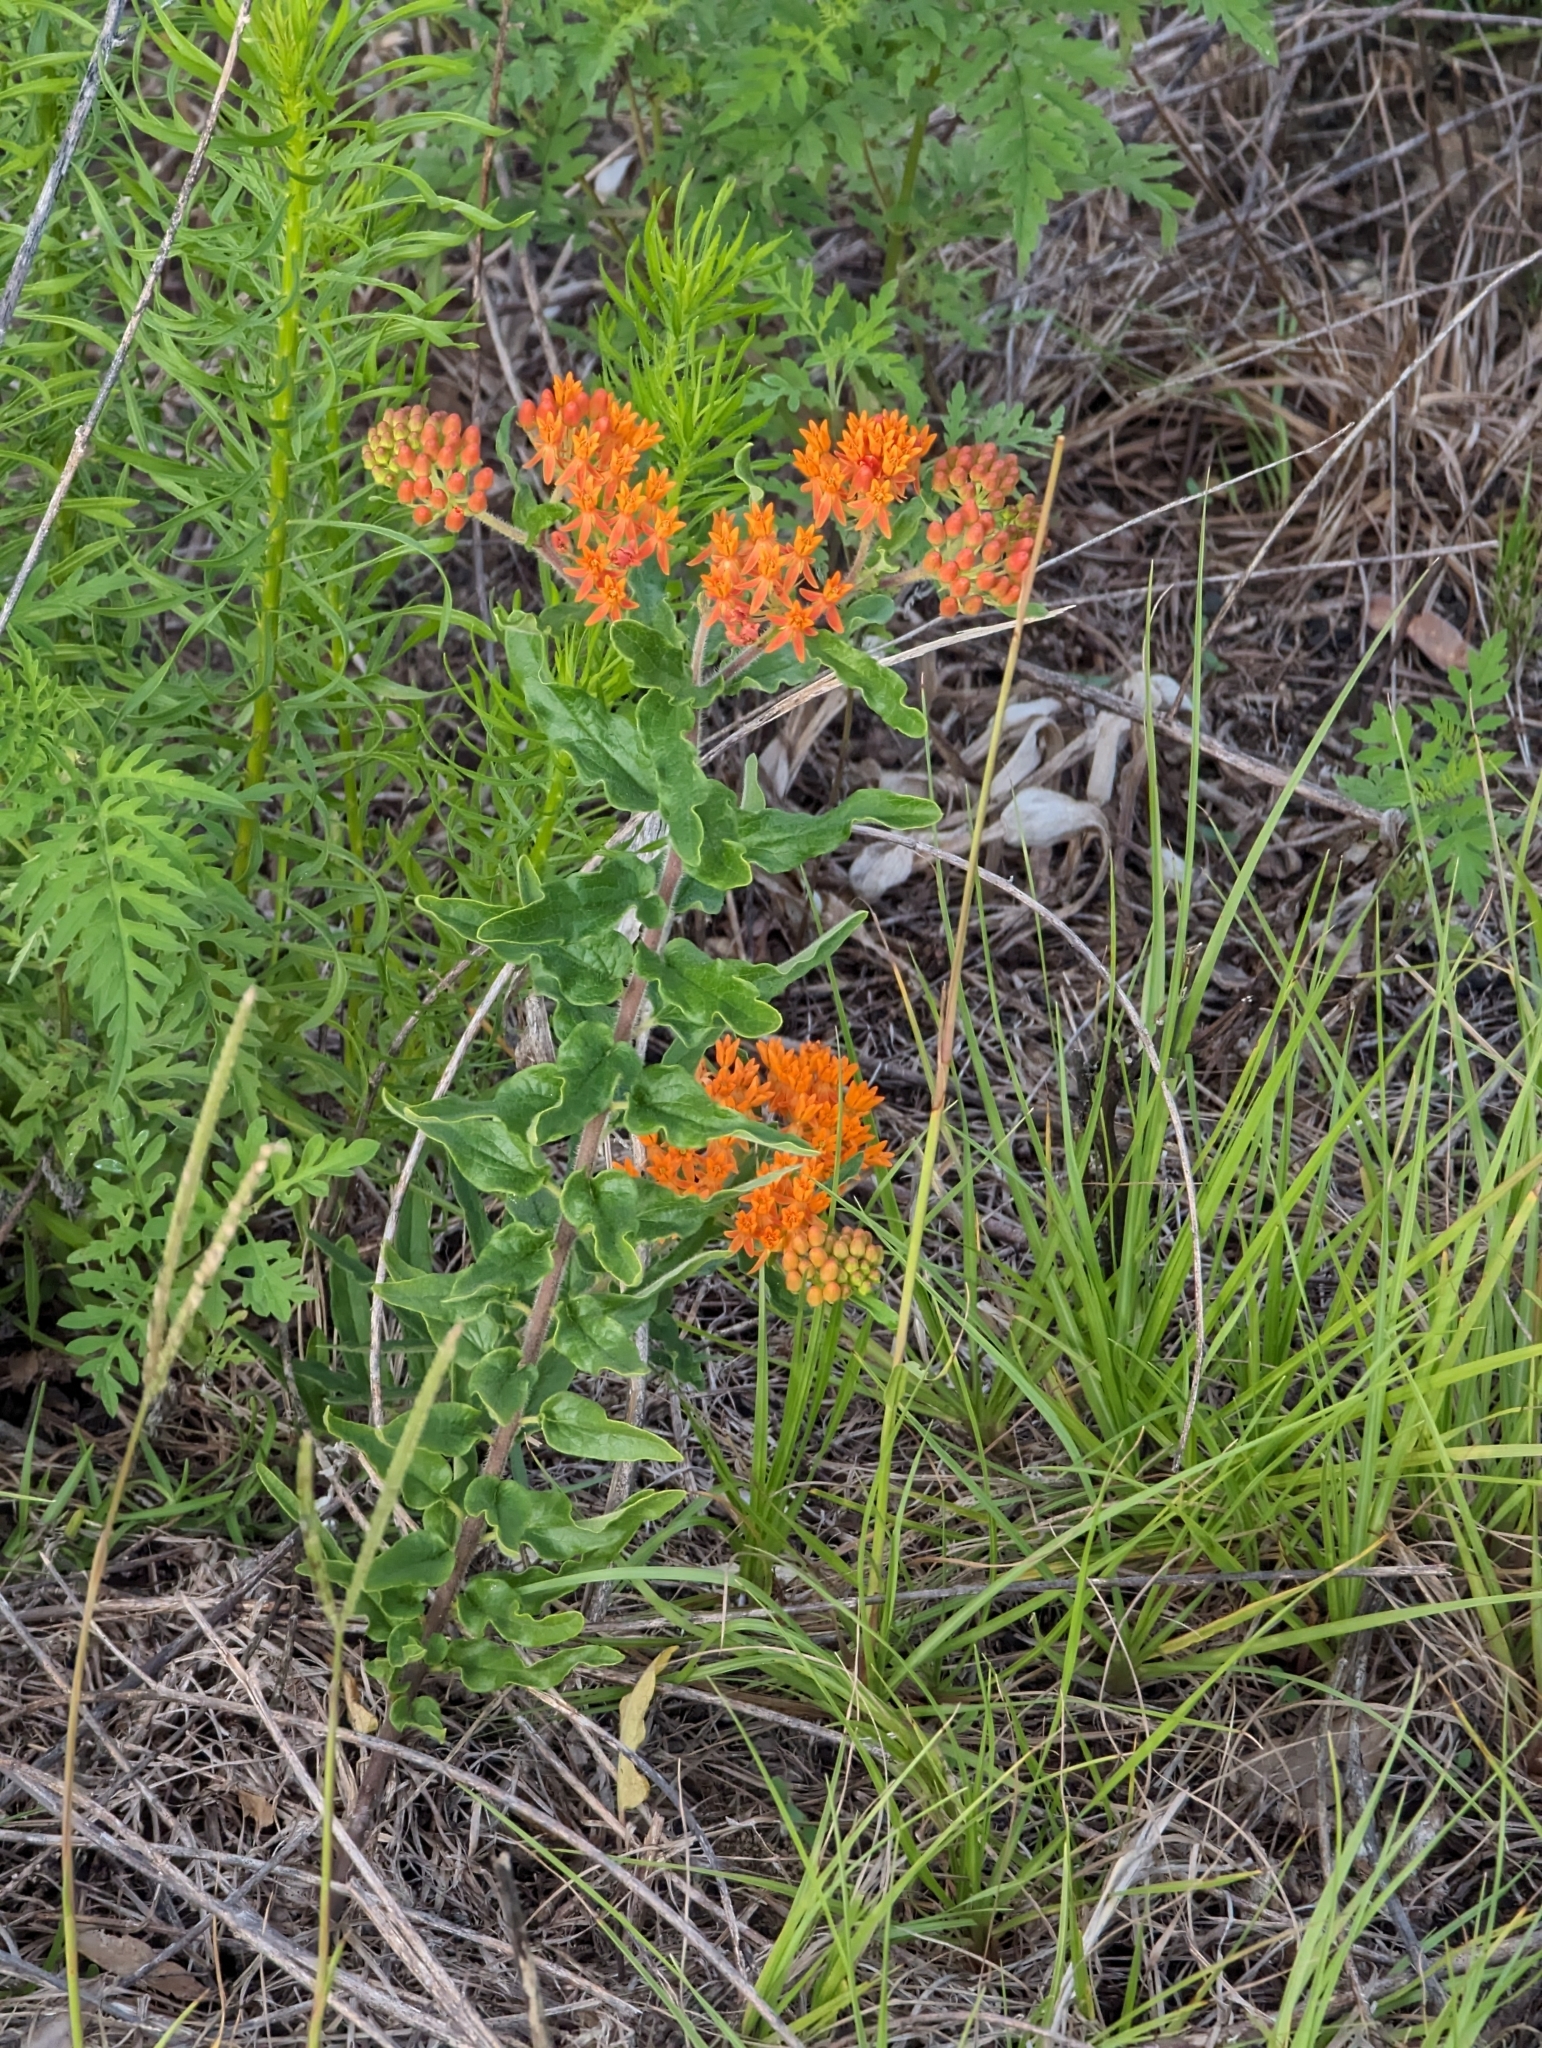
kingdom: Plantae
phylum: Tracheophyta
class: Magnoliopsida
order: Gentianales
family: Apocynaceae
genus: Asclepias
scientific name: Asclepias tuberosa
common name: Butterfly milkweed
